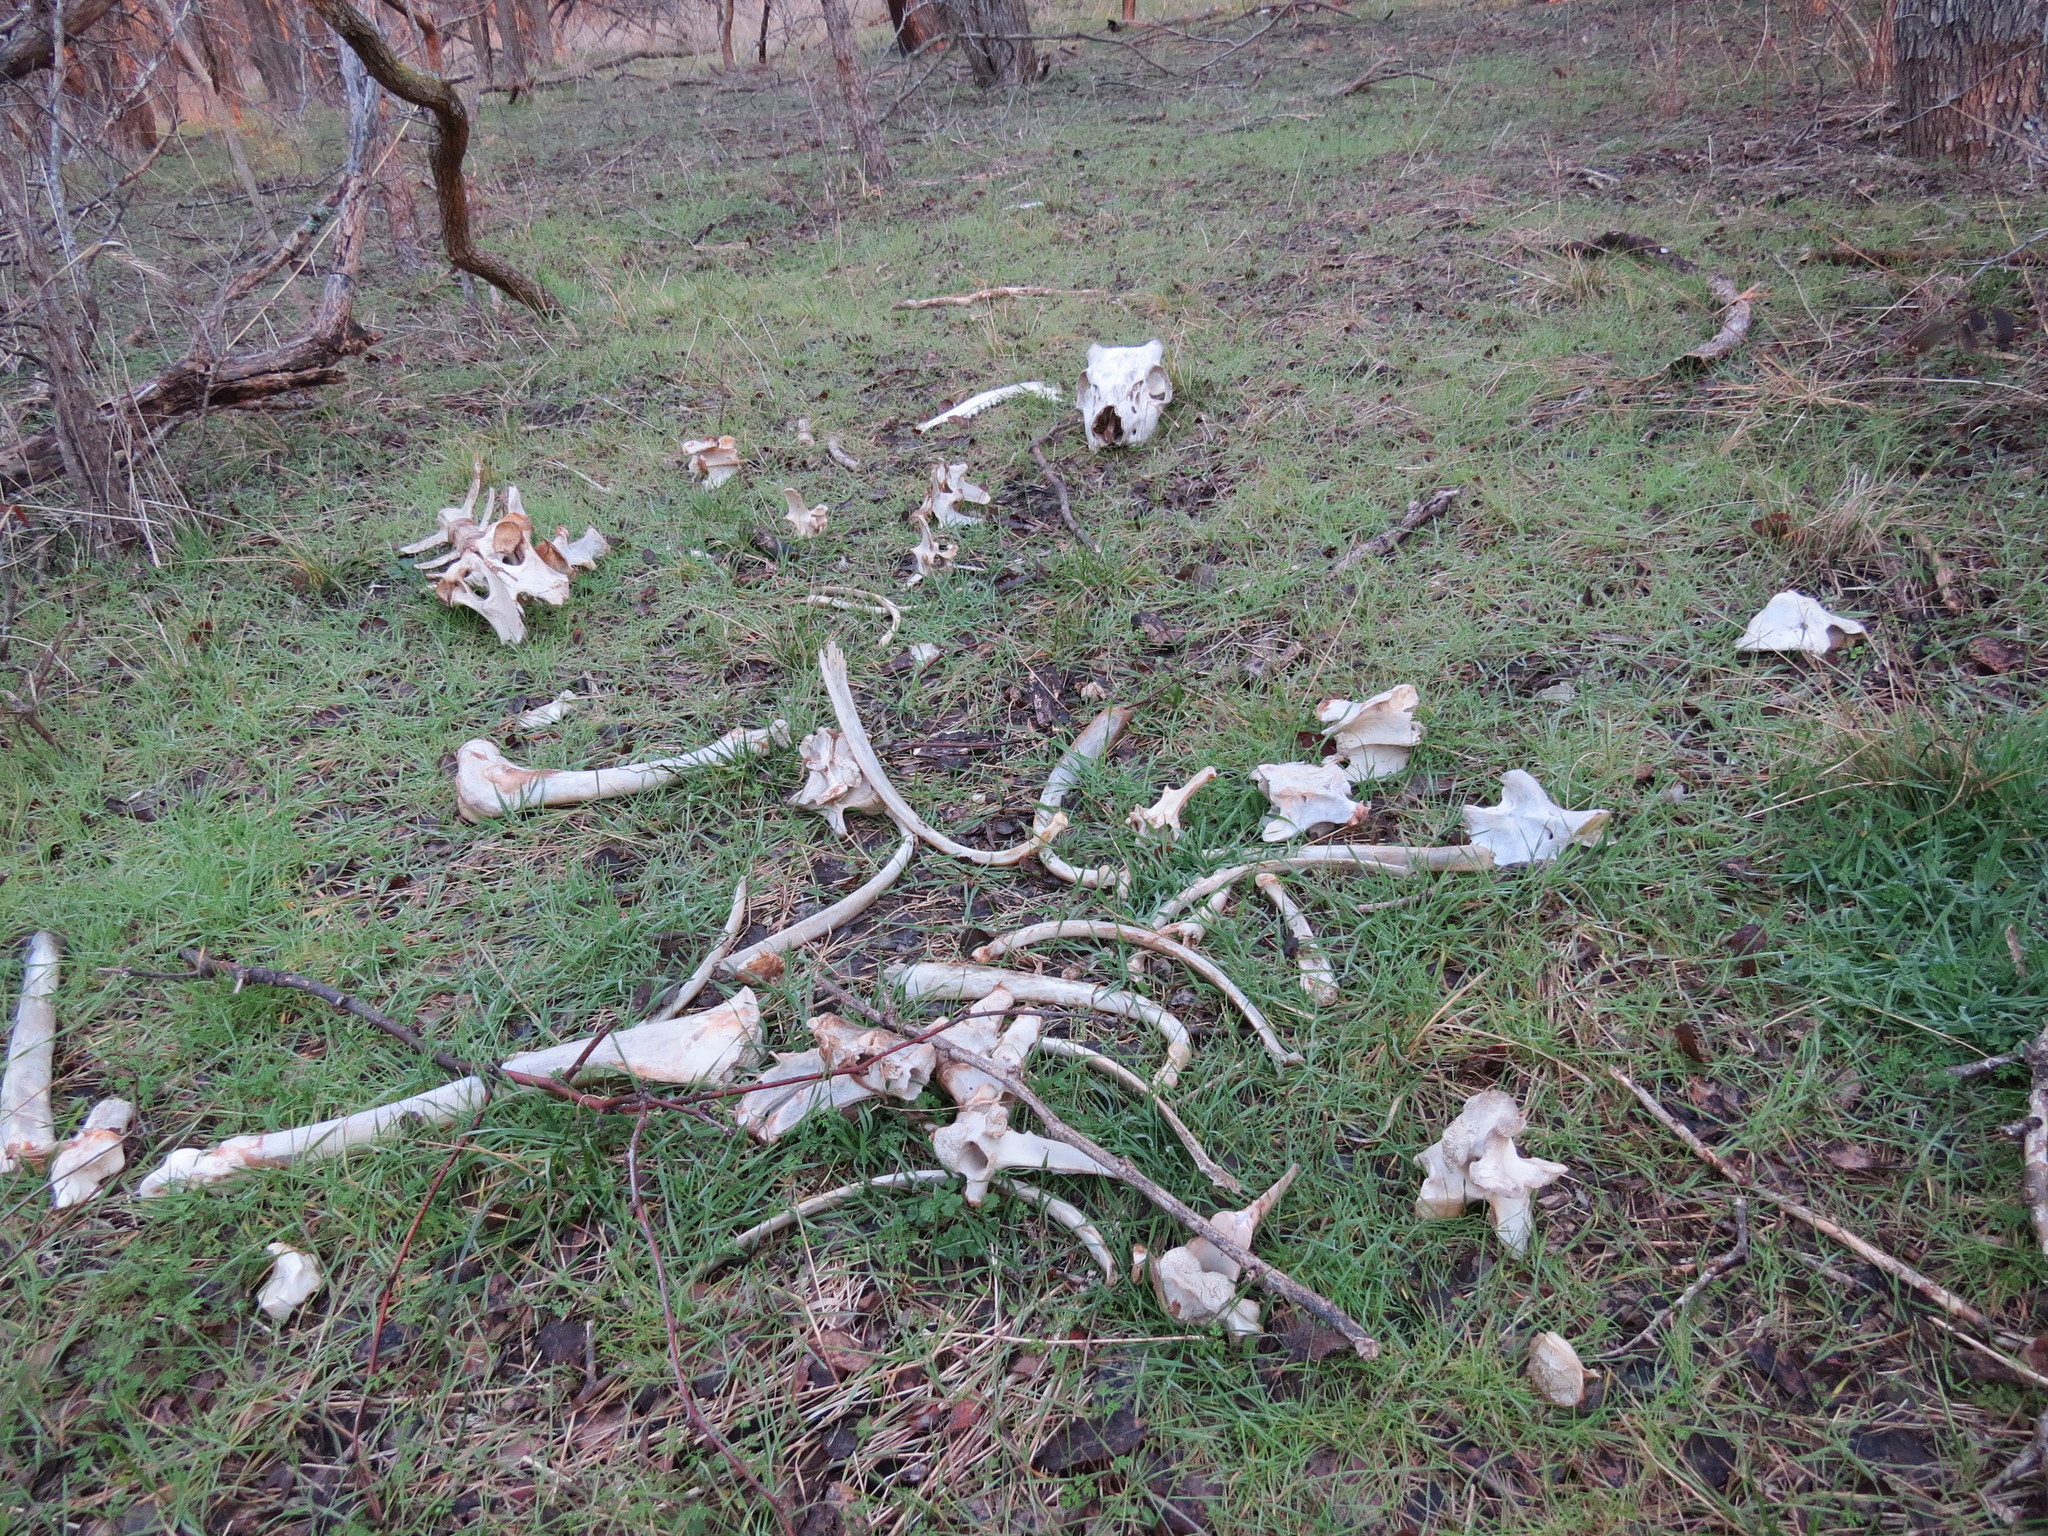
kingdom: Animalia
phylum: Chordata
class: Mammalia
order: Artiodactyla
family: Cervidae
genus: Odocoileus
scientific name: Odocoileus virginianus
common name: White-tailed deer
